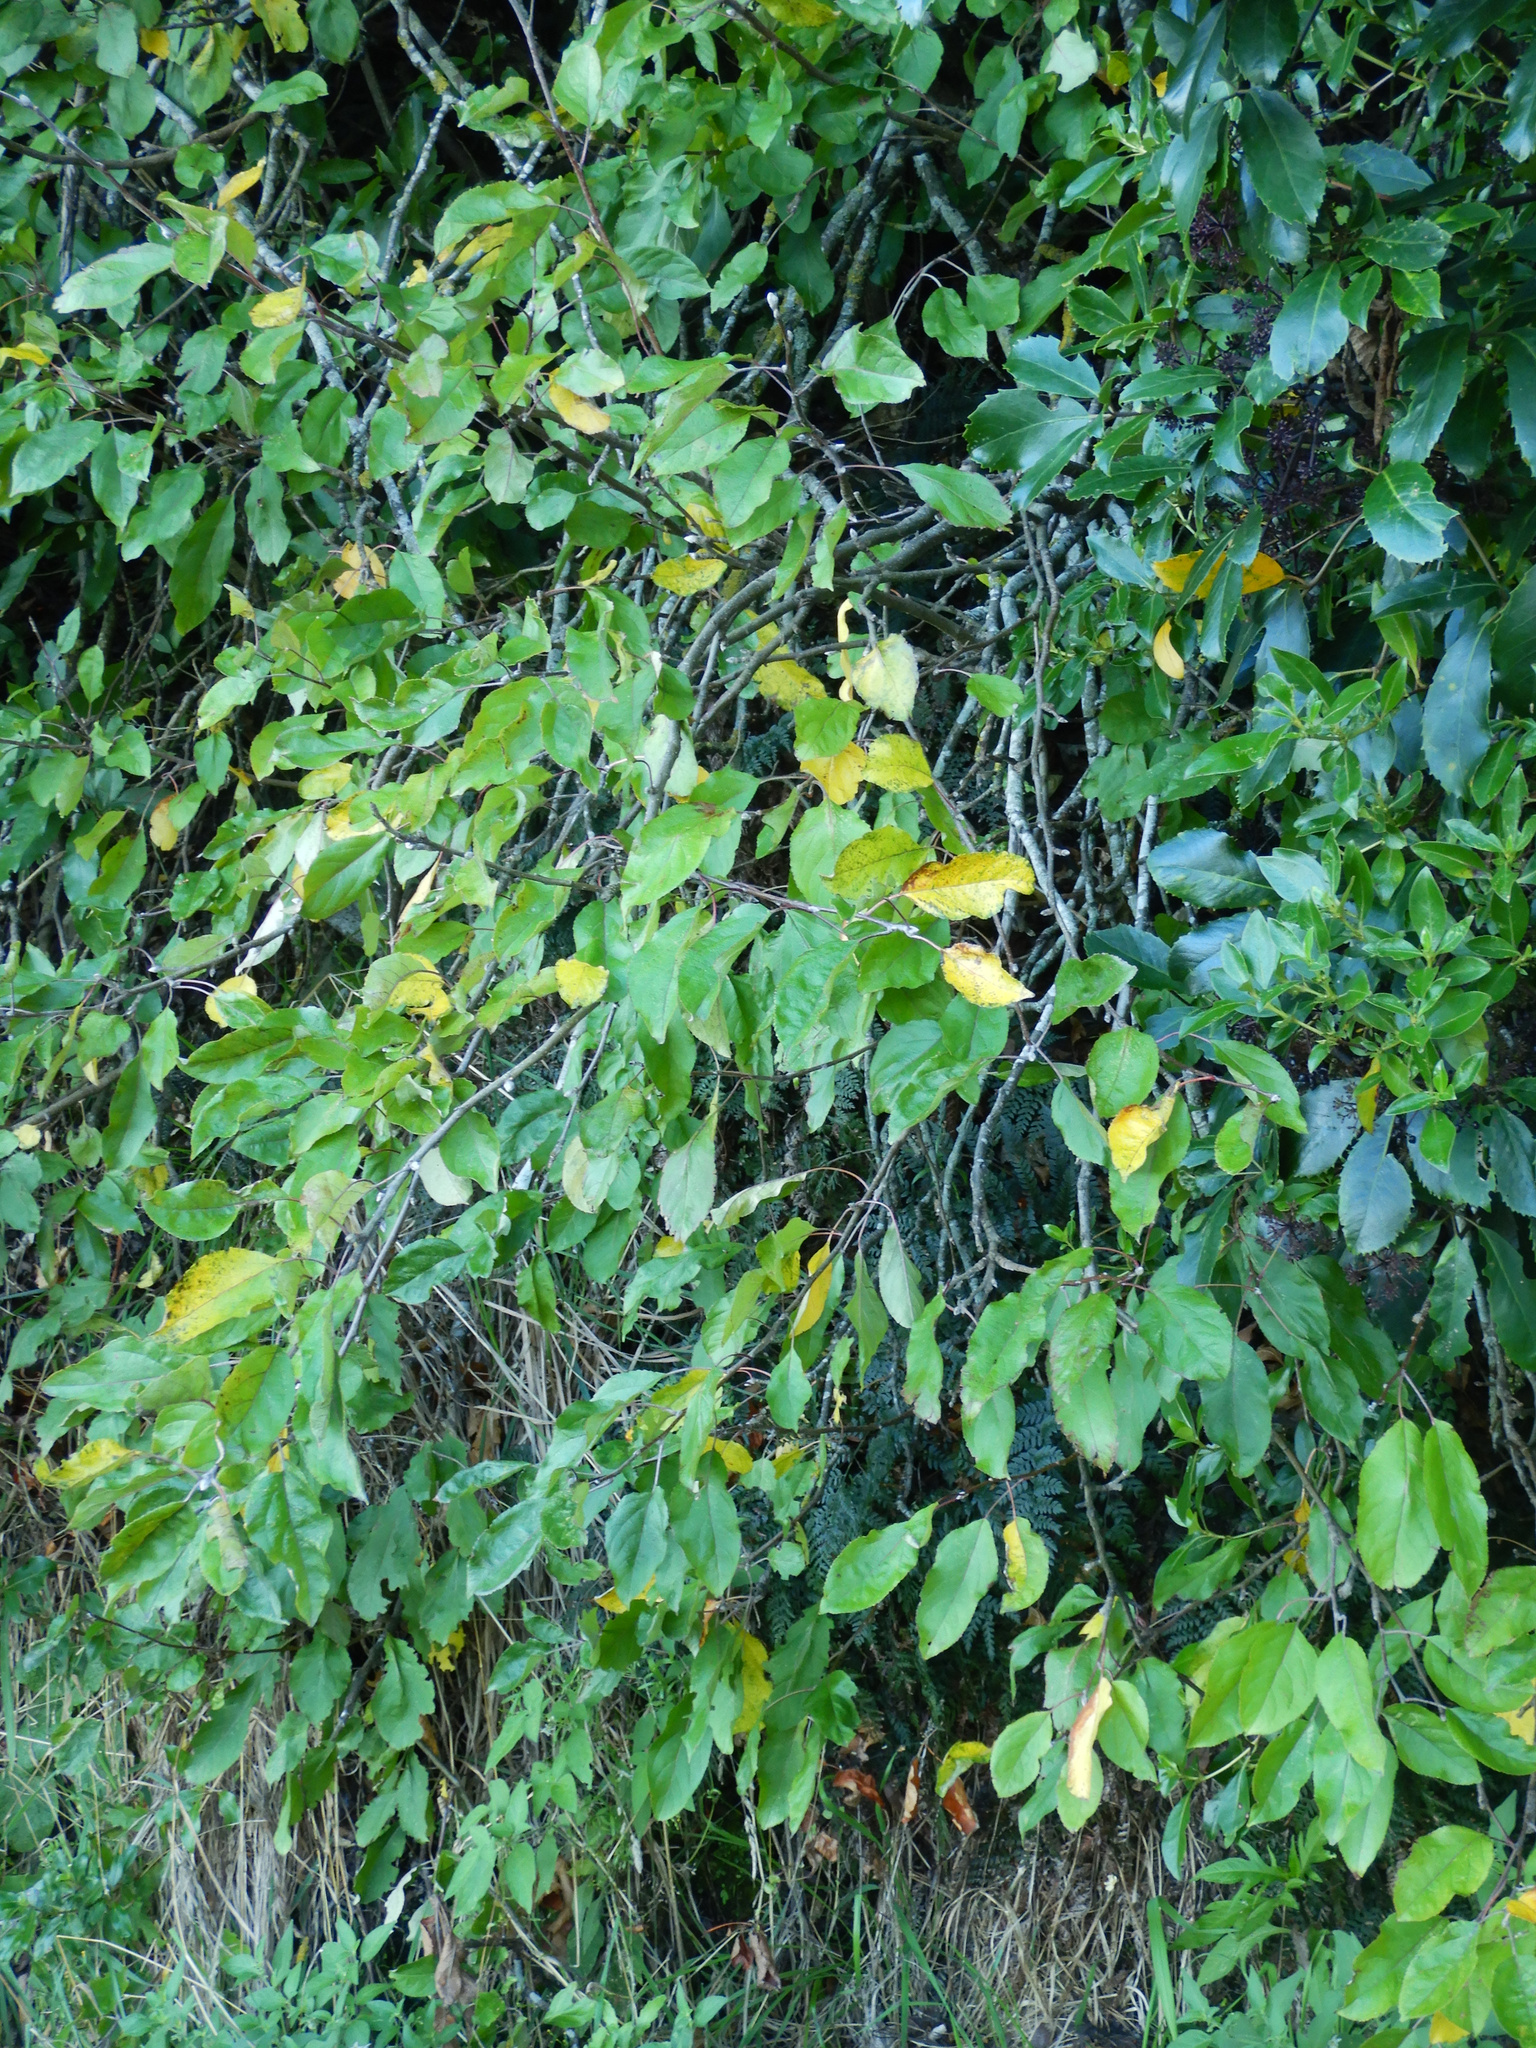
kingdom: Plantae
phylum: Tracheophyta
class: Magnoliopsida
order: Rosales
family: Rosaceae
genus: Malus
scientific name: Malus domestica
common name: Apple
